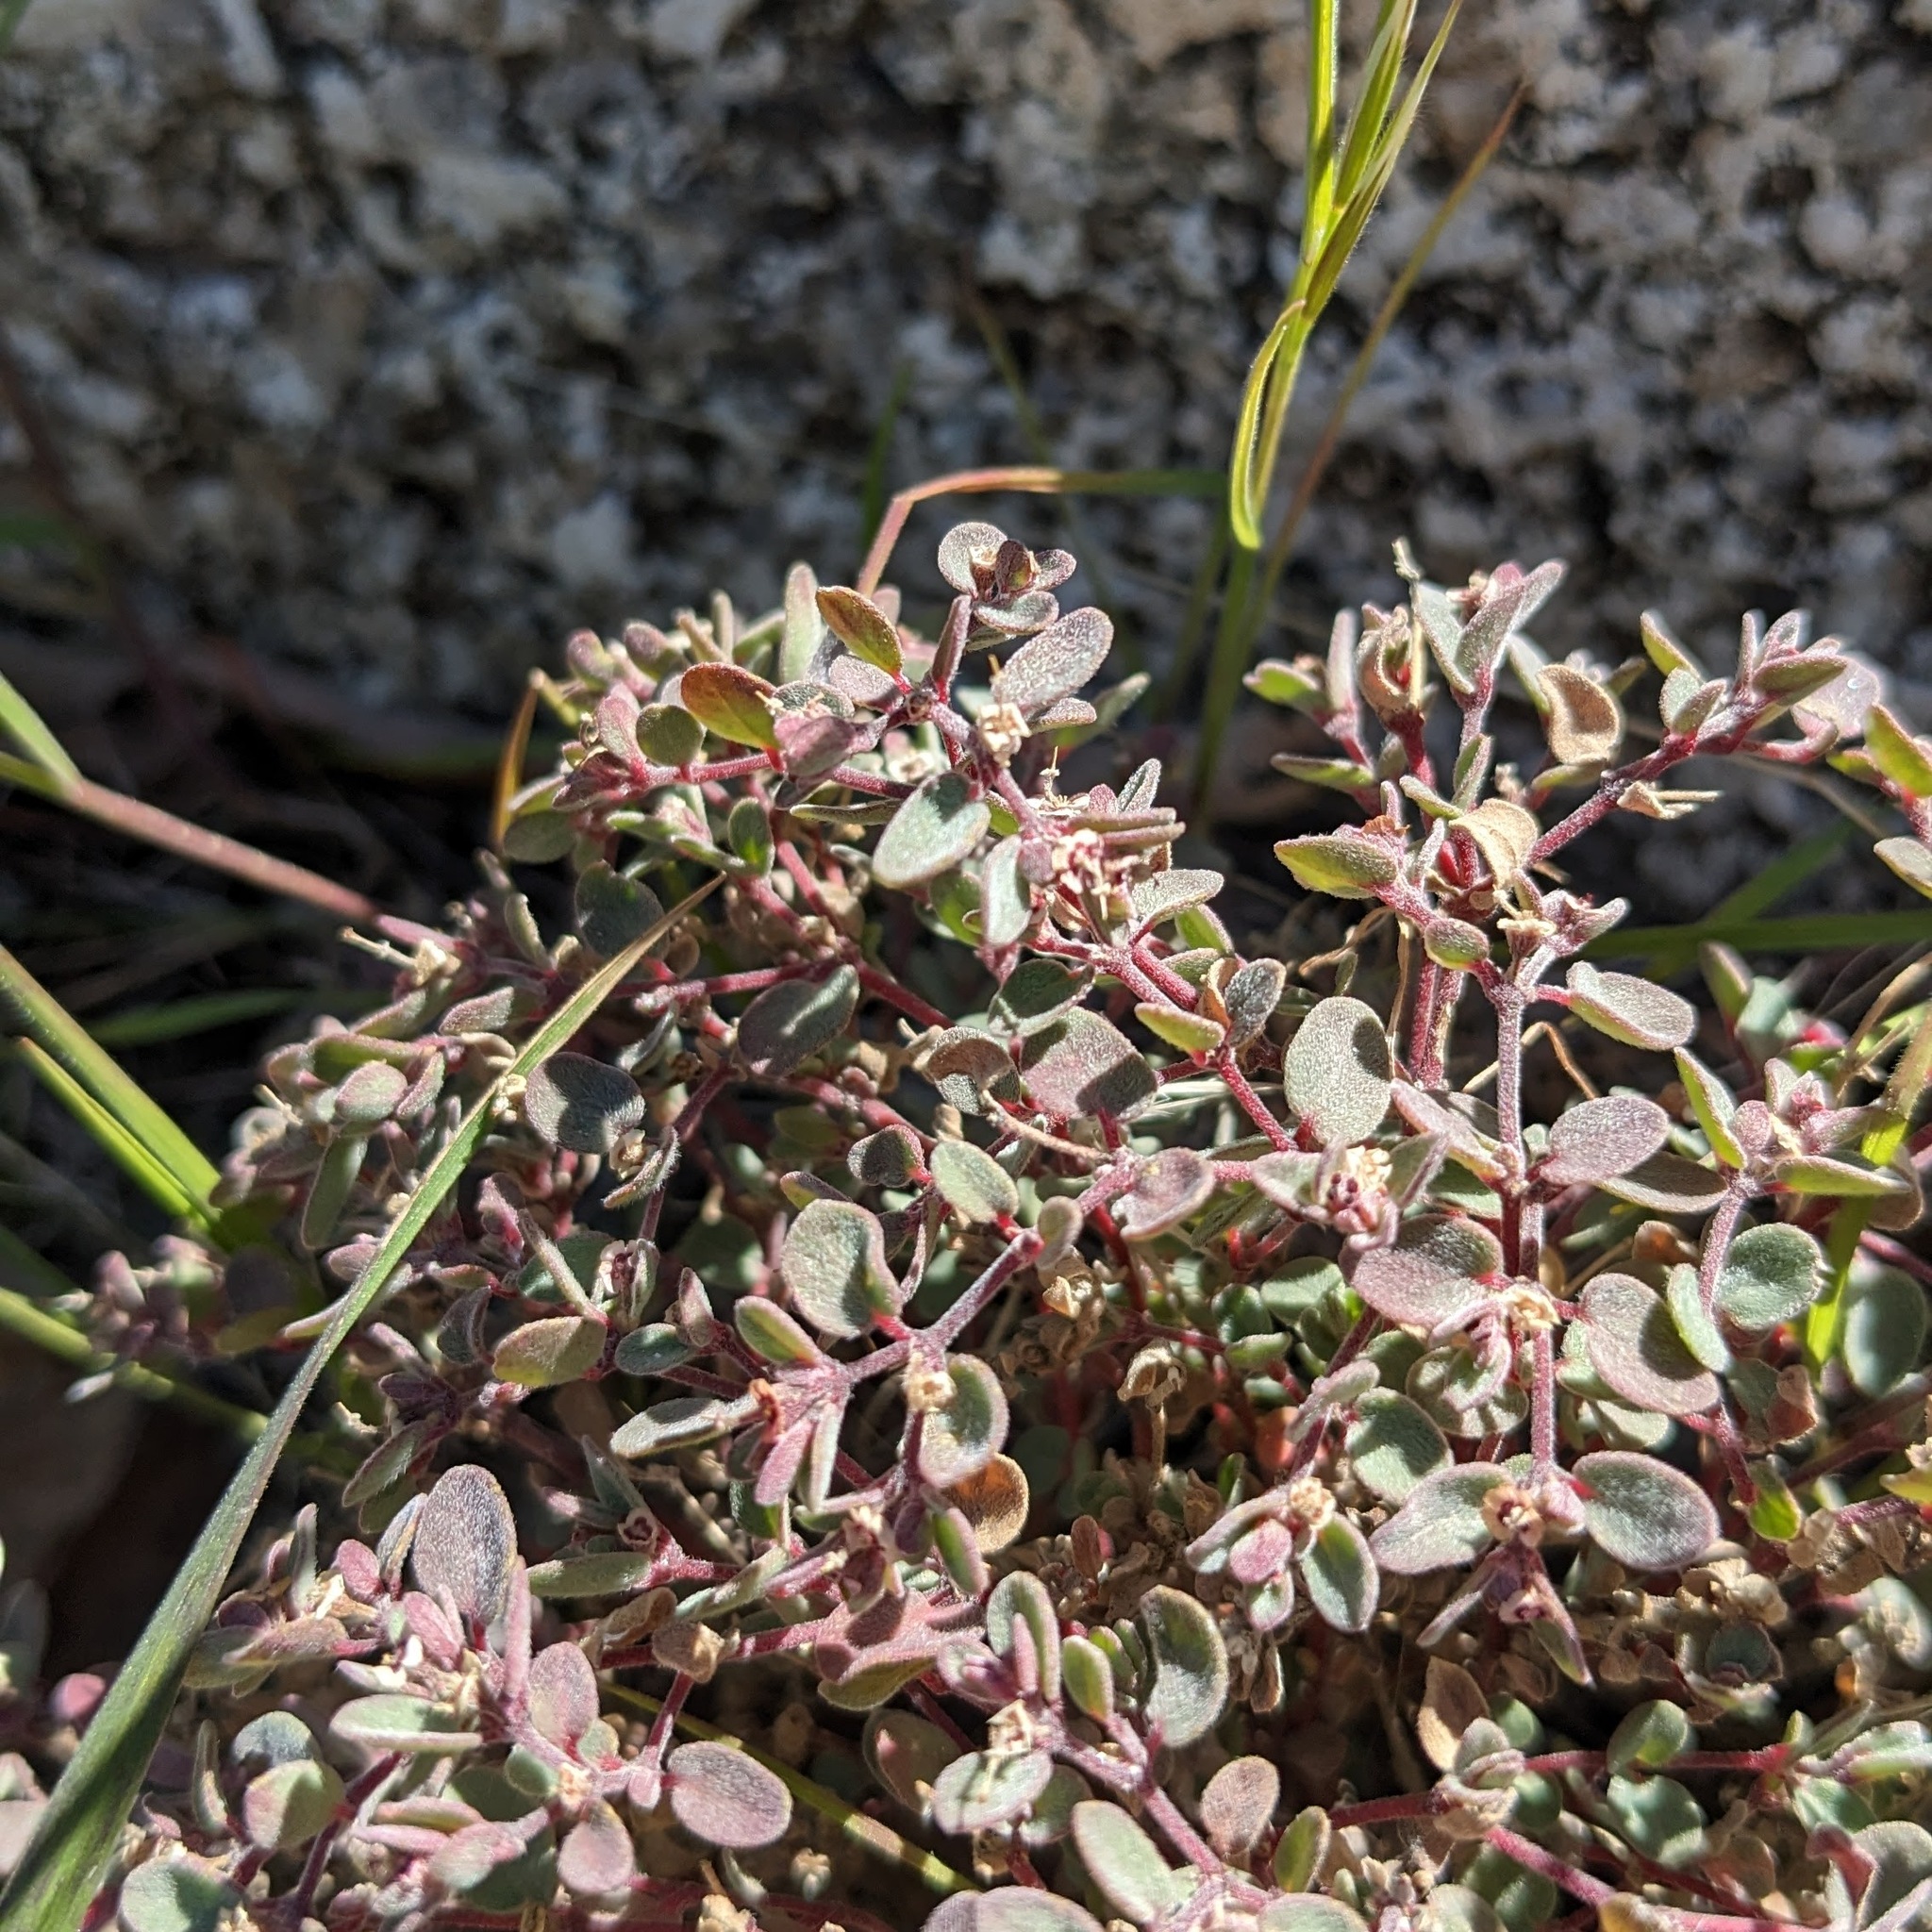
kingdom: Plantae
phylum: Tracheophyta
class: Magnoliopsida
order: Malpighiales
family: Euphorbiaceae
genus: Euphorbia
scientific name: Euphorbia melanadenia
